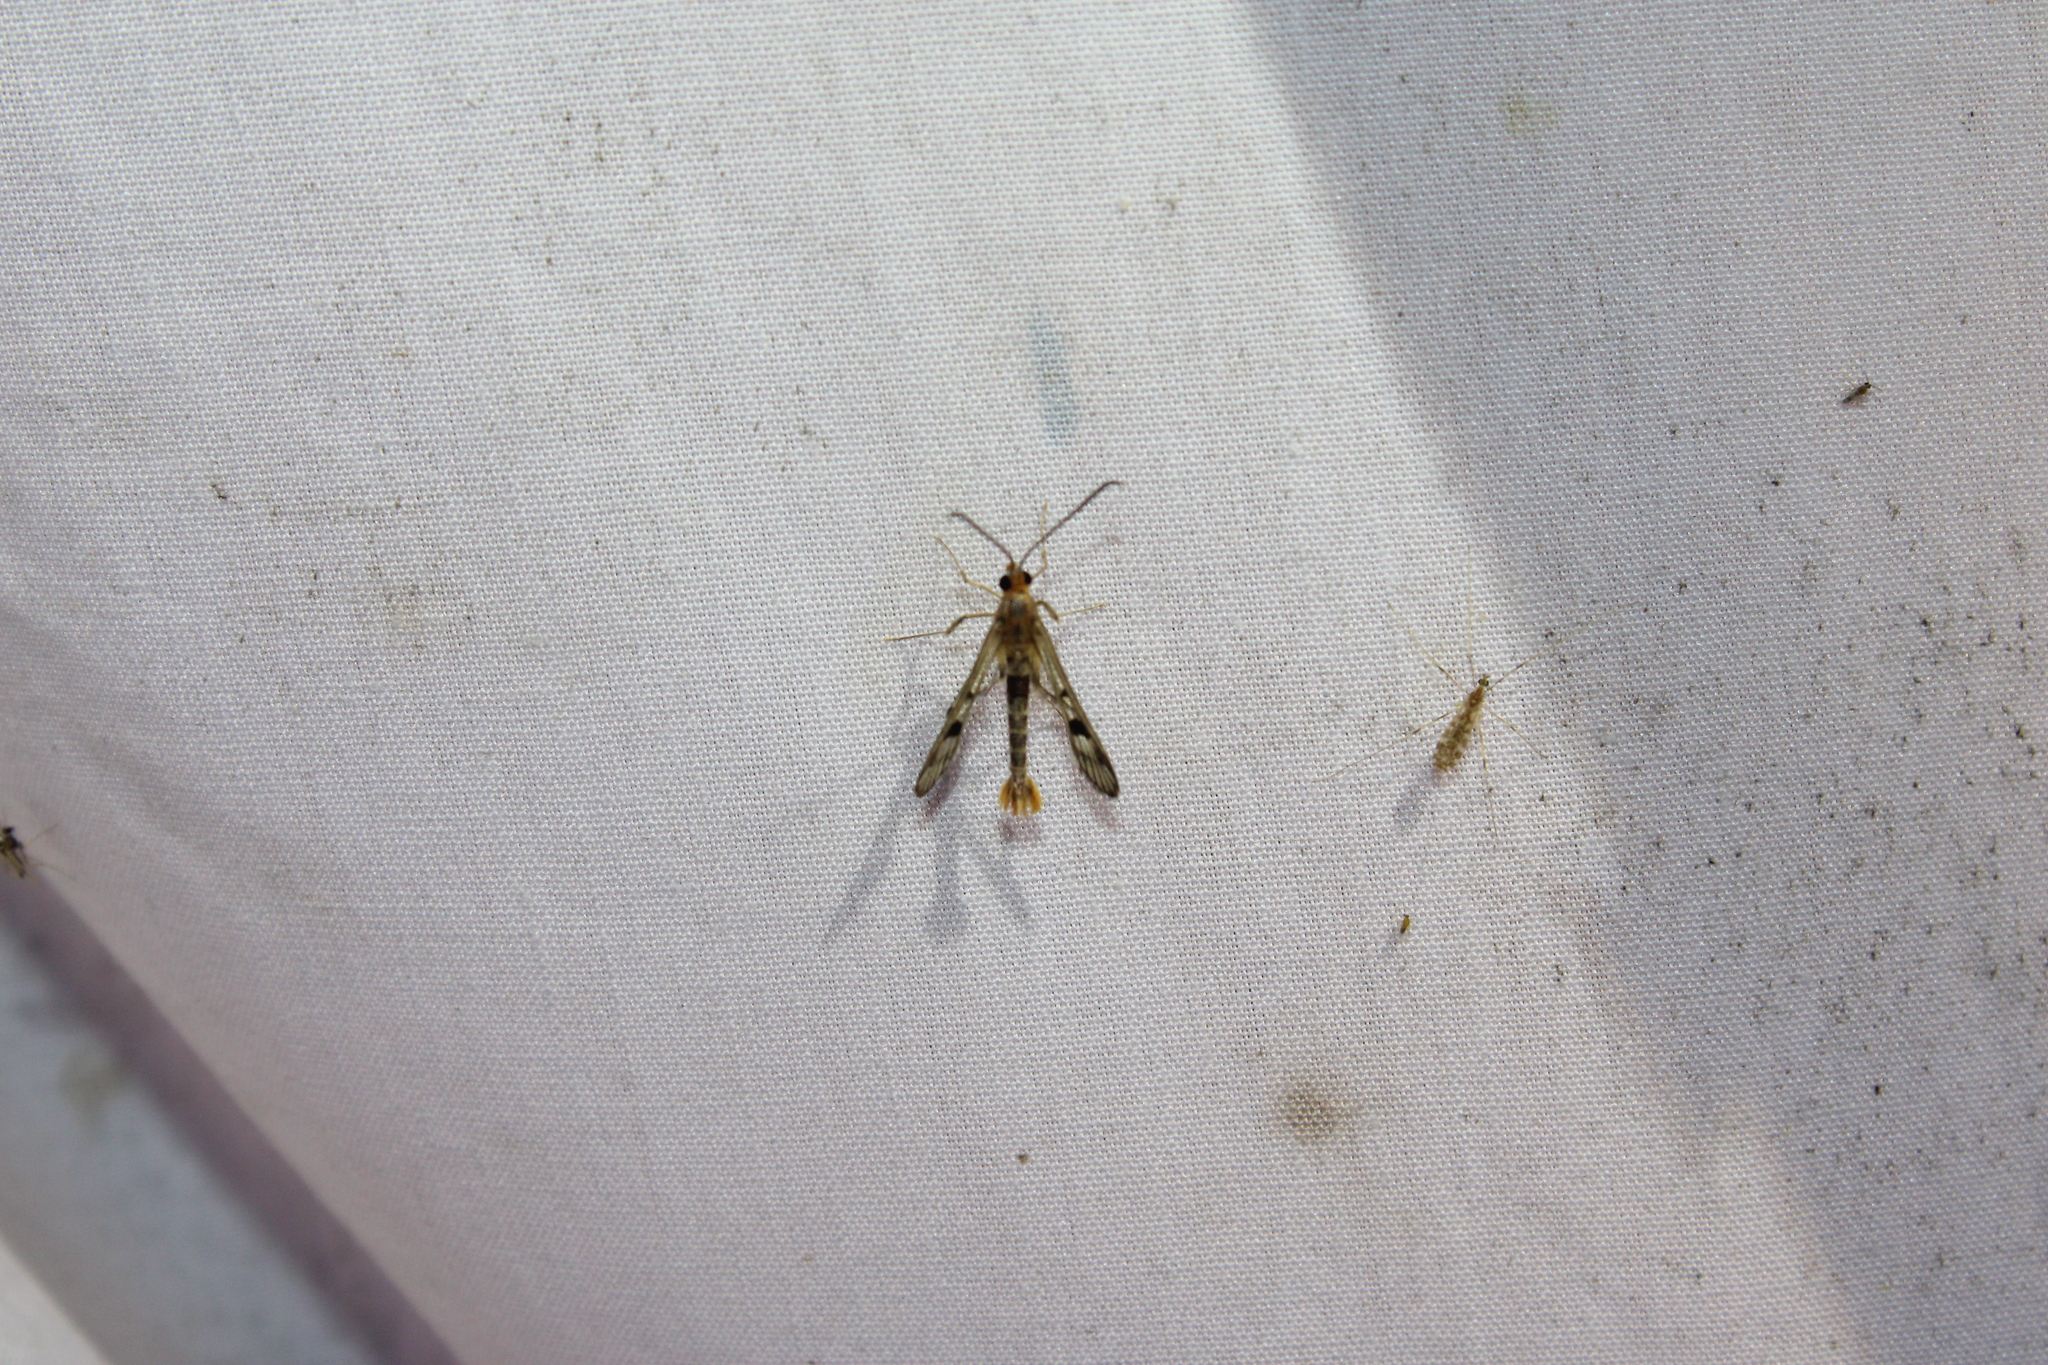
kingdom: Animalia
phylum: Arthropoda
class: Insecta
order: Lepidoptera
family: Sesiidae
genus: Synanthedon
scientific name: Synanthedon acerni
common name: Maple callus borer moth
